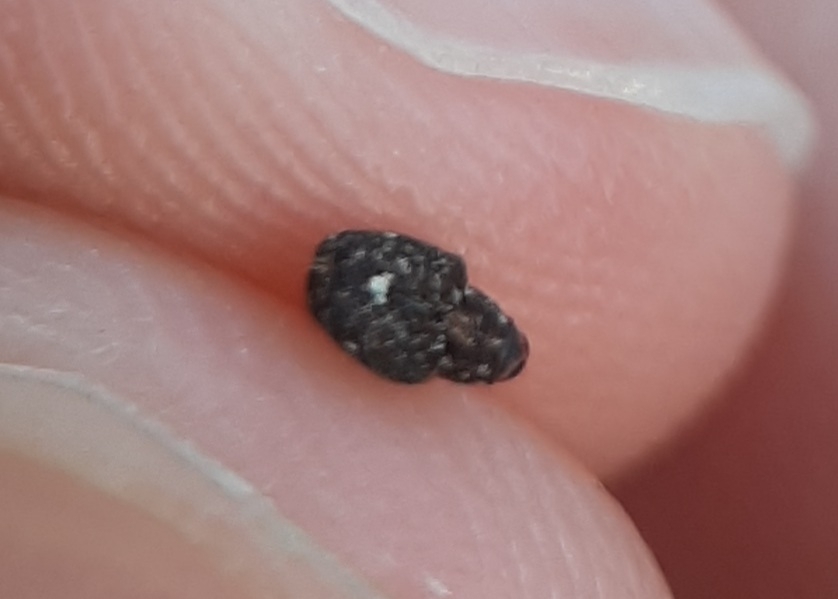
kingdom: Animalia
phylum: Arthropoda
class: Insecta
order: Coleoptera
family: Curculionidae
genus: Lechriops
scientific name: Lechriops oculatus
